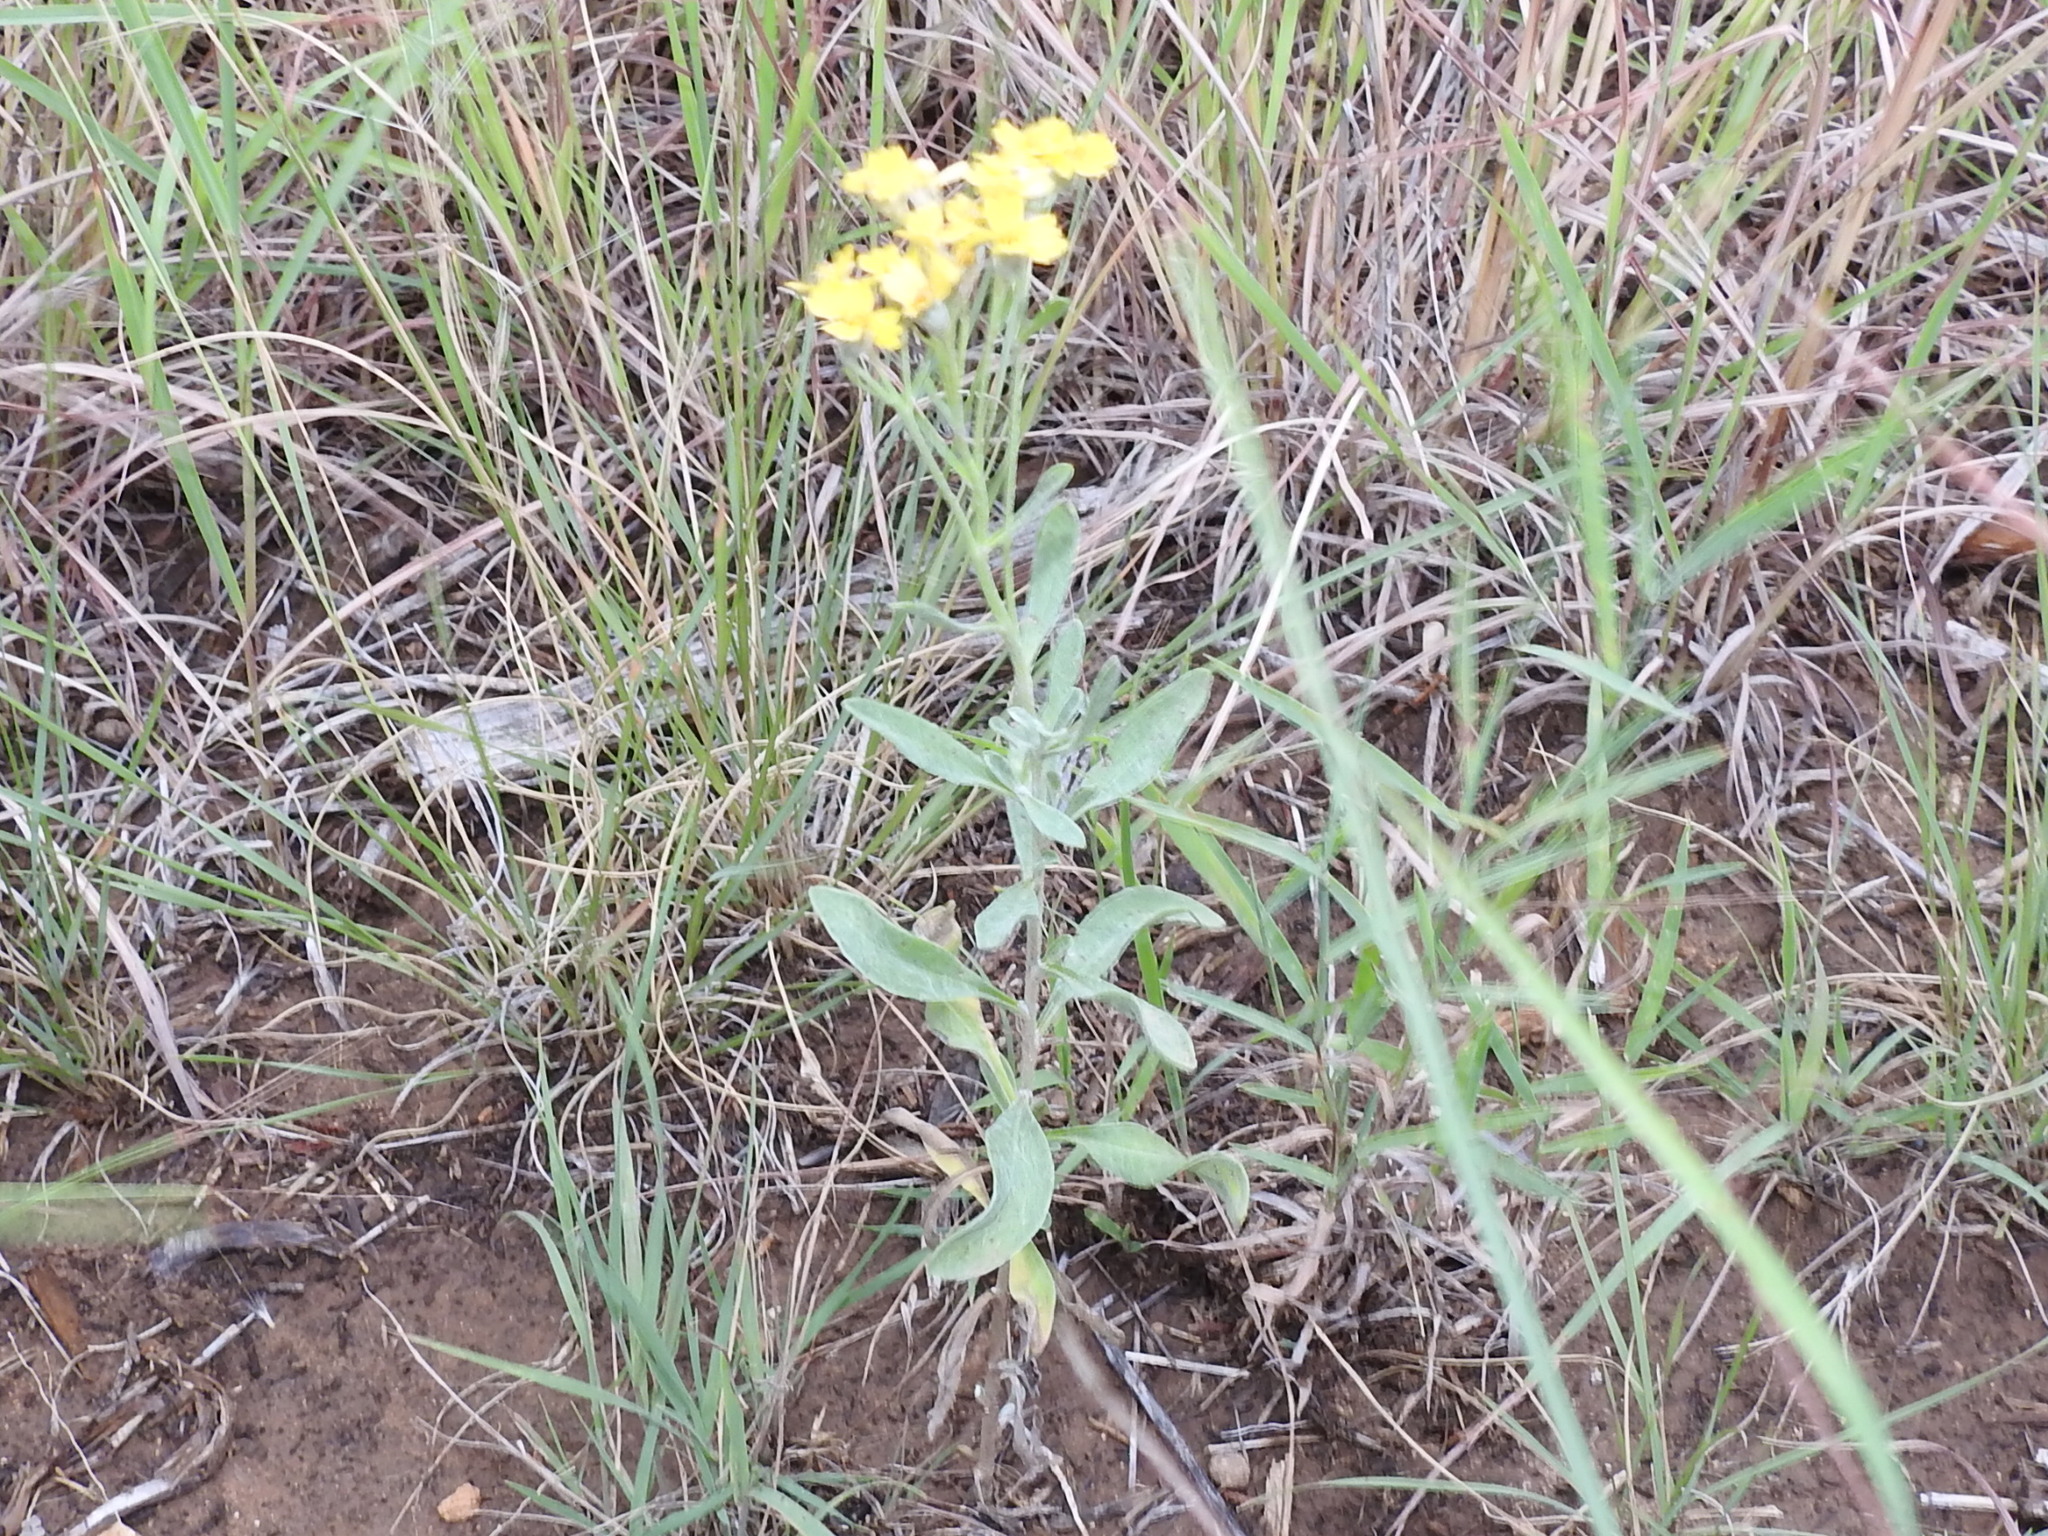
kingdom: Plantae
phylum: Tracheophyta
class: Magnoliopsida
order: Asterales
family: Asteraceae
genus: Psilostrophe
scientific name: Psilostrophe tagetina
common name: Marigold paper-flower
